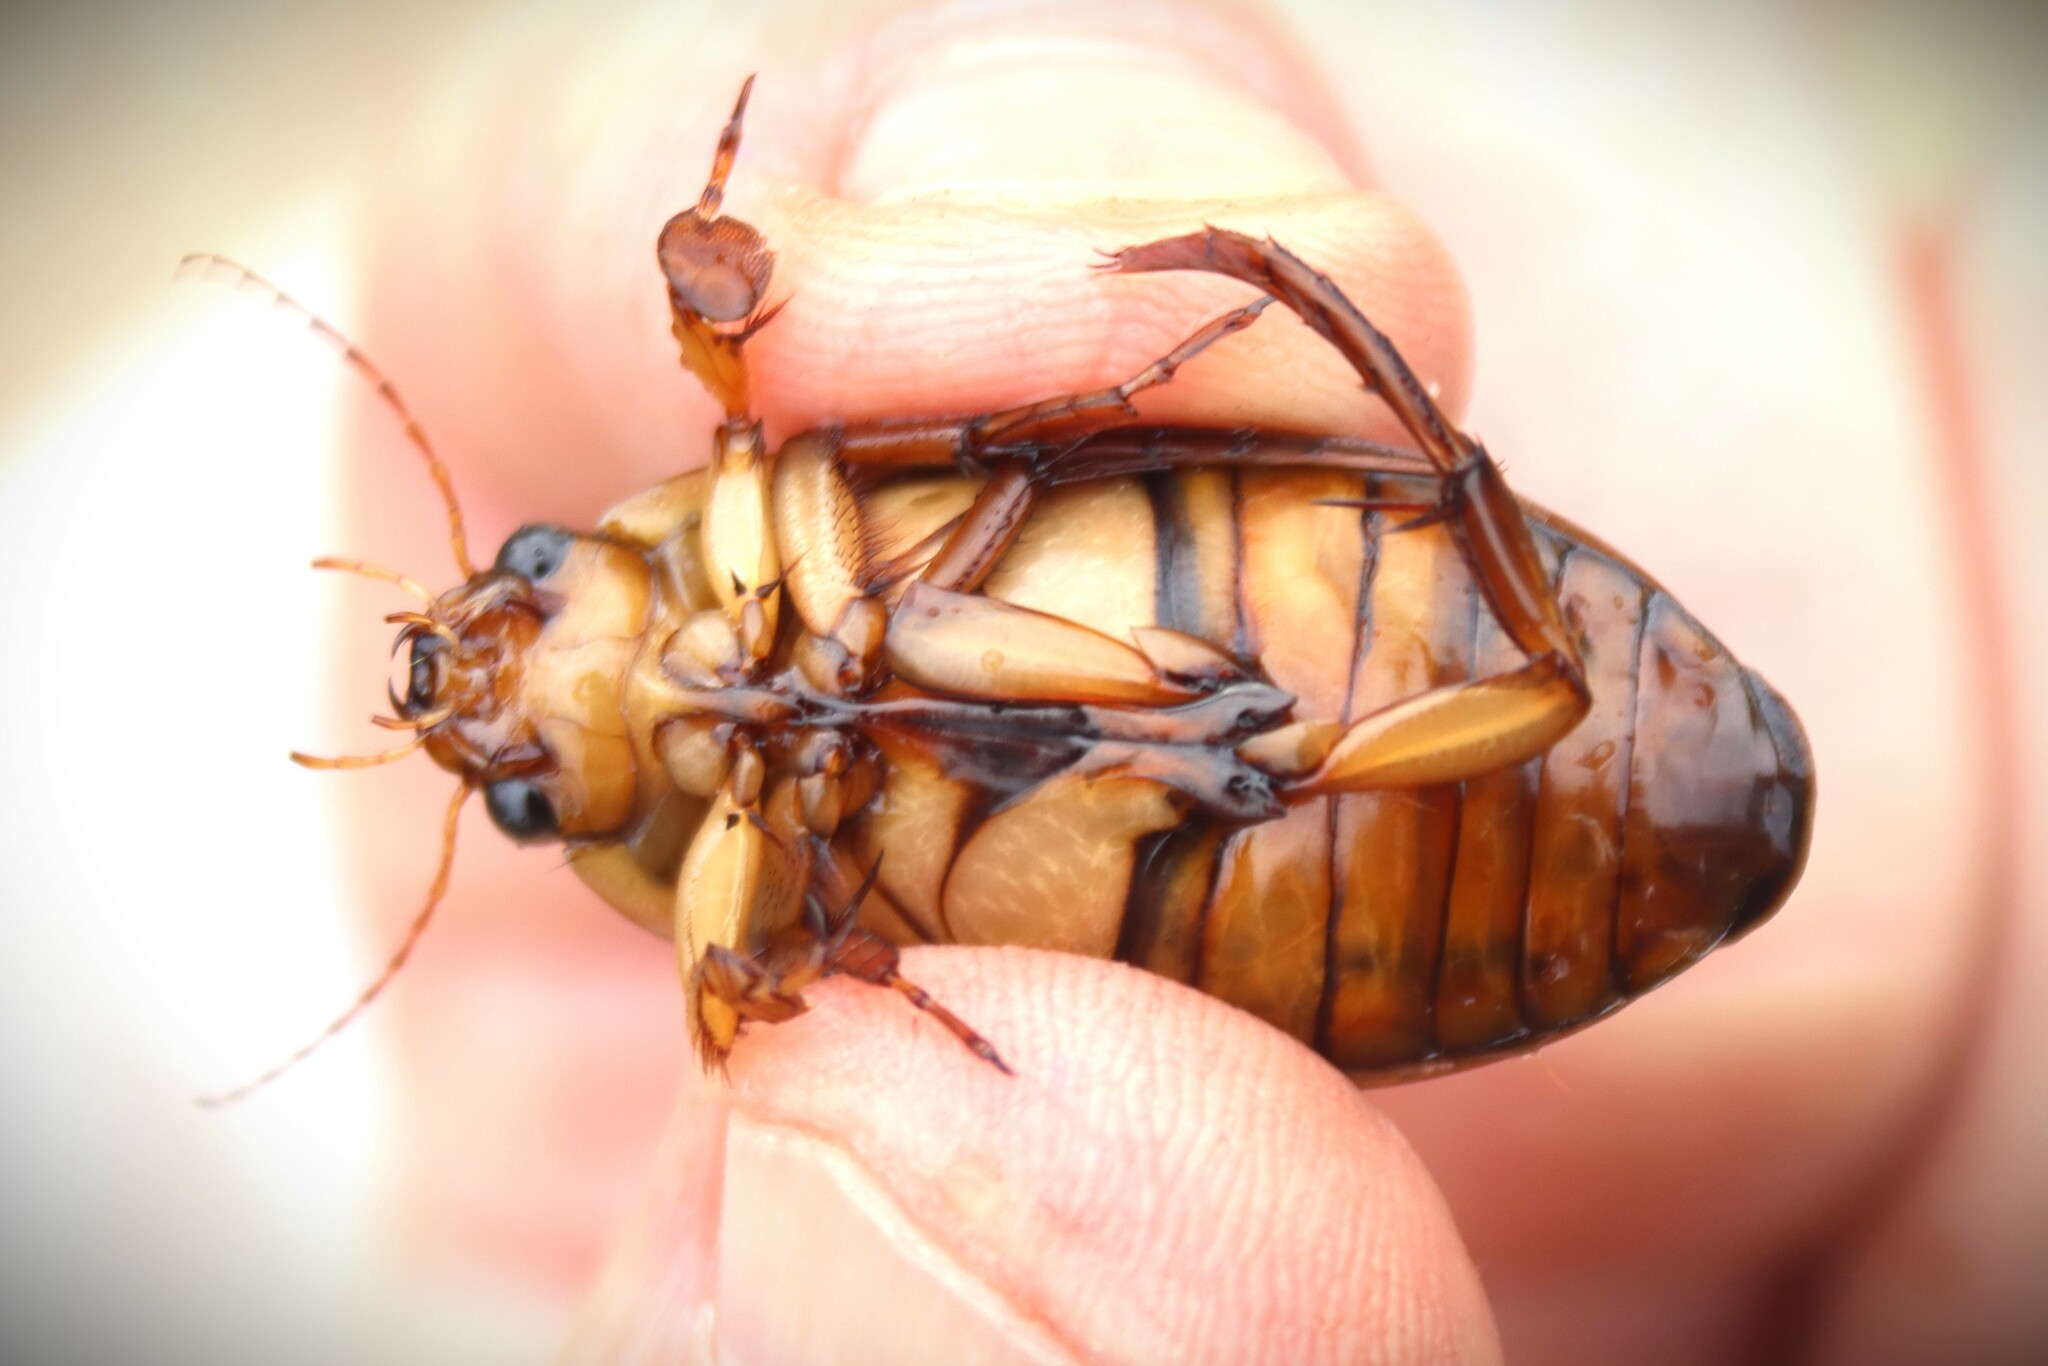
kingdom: Animalia
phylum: Arthropoda
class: Insecta
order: Coleoptera
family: Dytiscidae
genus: Dytiscus
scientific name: Dytiscus marginalis
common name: Great water beetle
